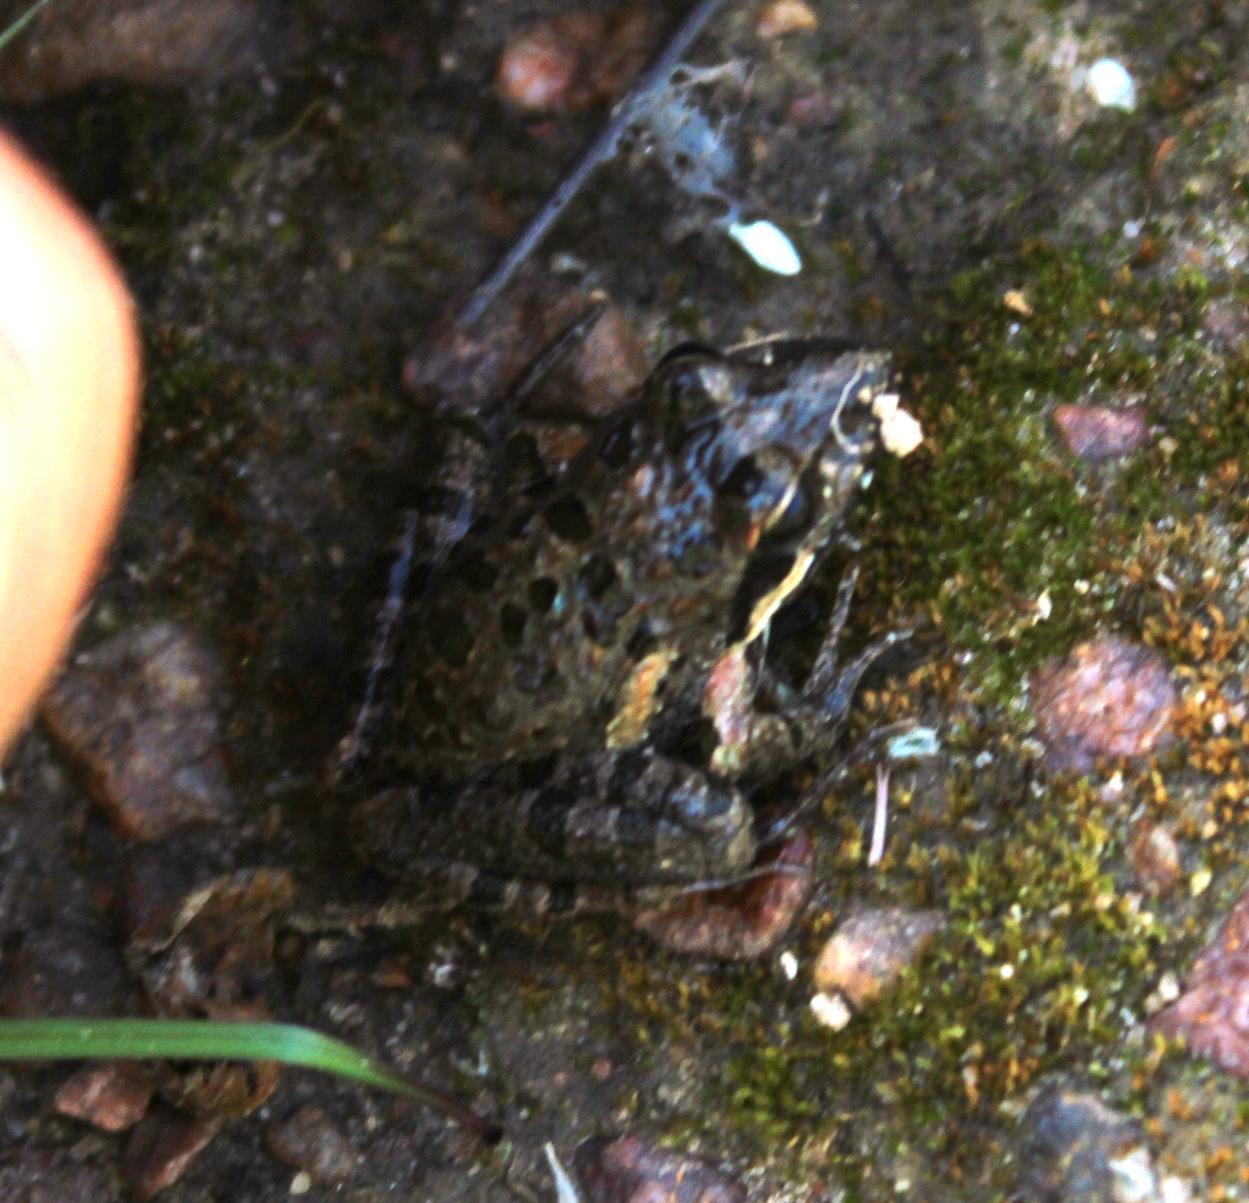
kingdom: Animalia
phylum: Chordata
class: Amphibia
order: Anura
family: Pyxicephalidae
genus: Strongylopus
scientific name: Strongylopus grayii
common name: Gray's stream frog
